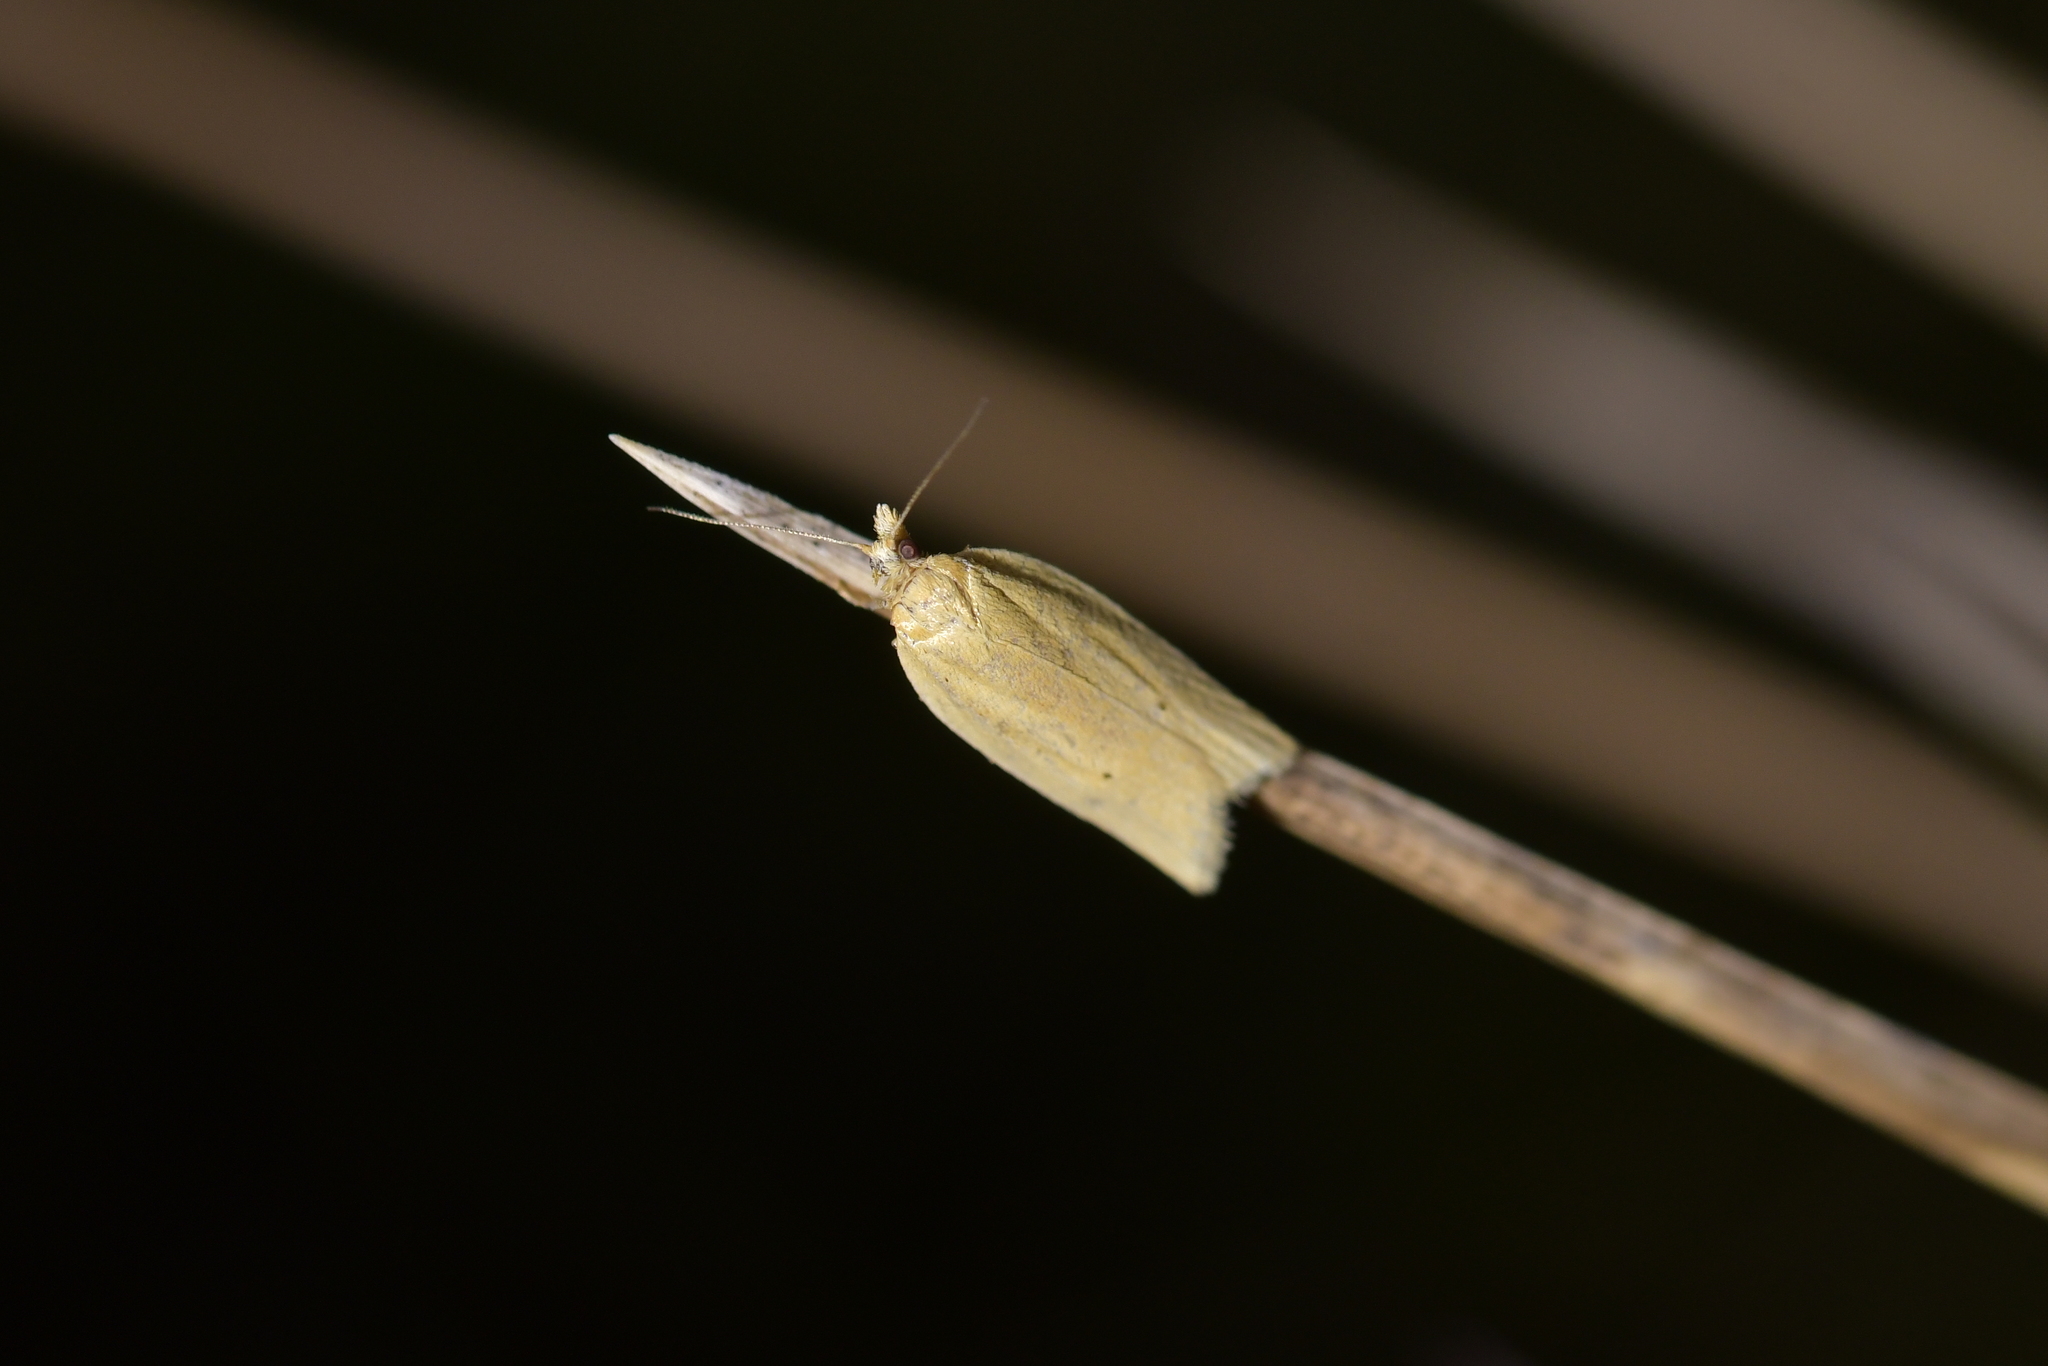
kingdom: Animalia
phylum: Arthropoda
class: Insecta
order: Lepidoptera
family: Tortricidae
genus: Clepsis
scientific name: Clepsis
